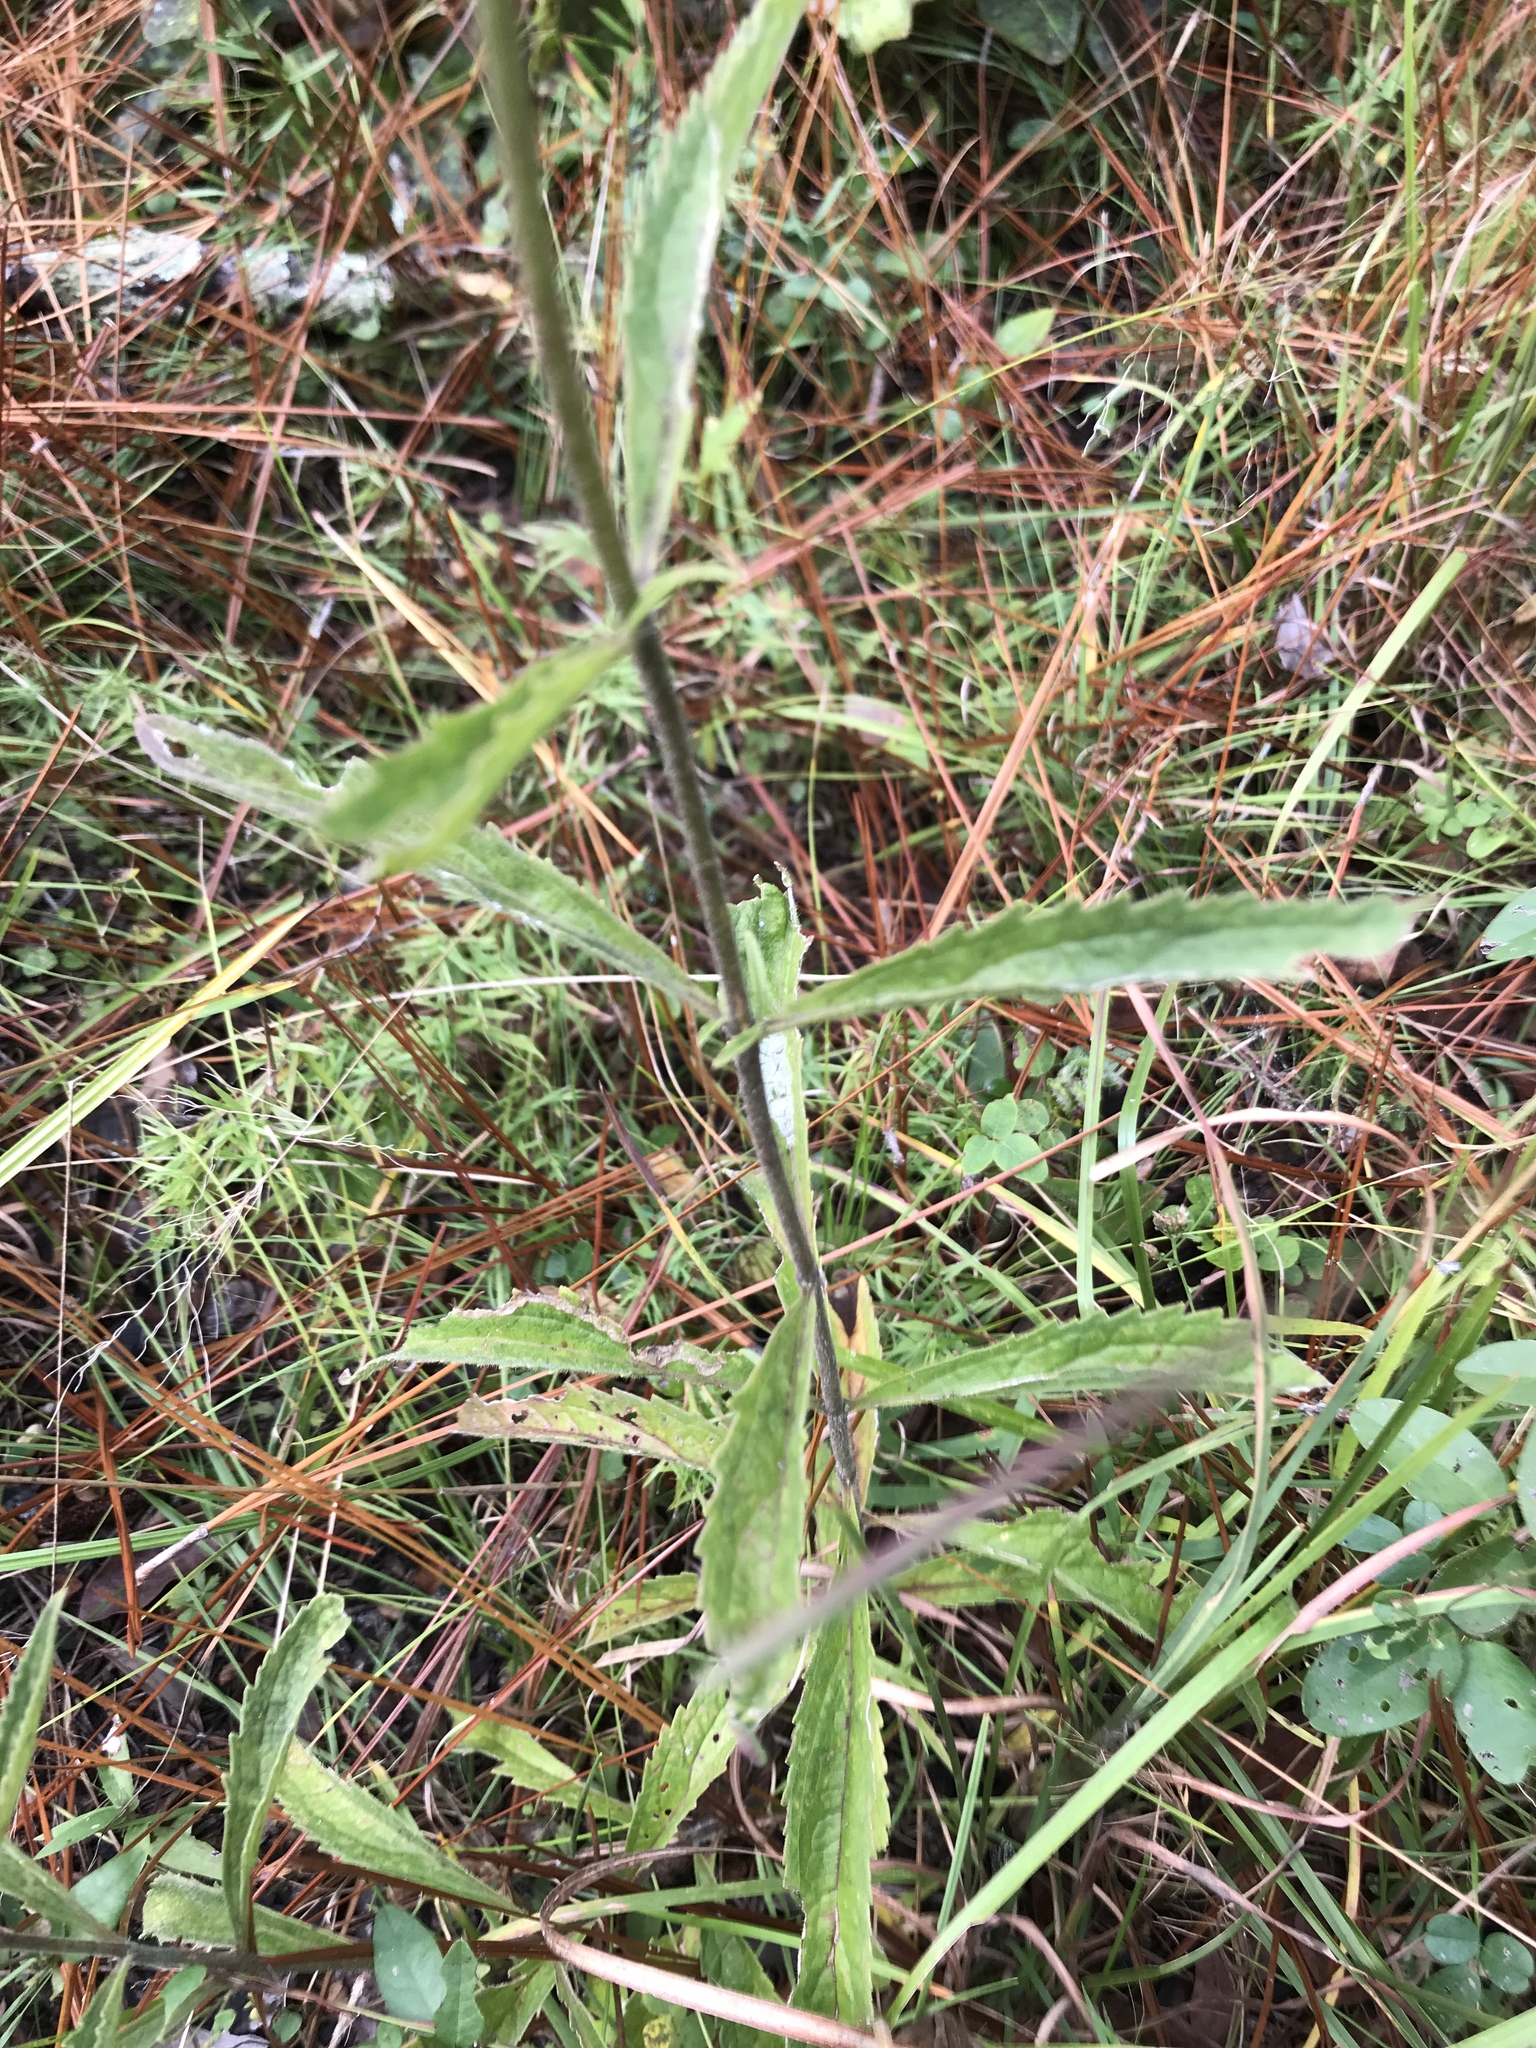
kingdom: Plantae
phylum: Tracheophyta
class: Magnoliopsida
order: Asterales
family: Asteraceae
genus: Eupatorium
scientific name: Eupatorium album
